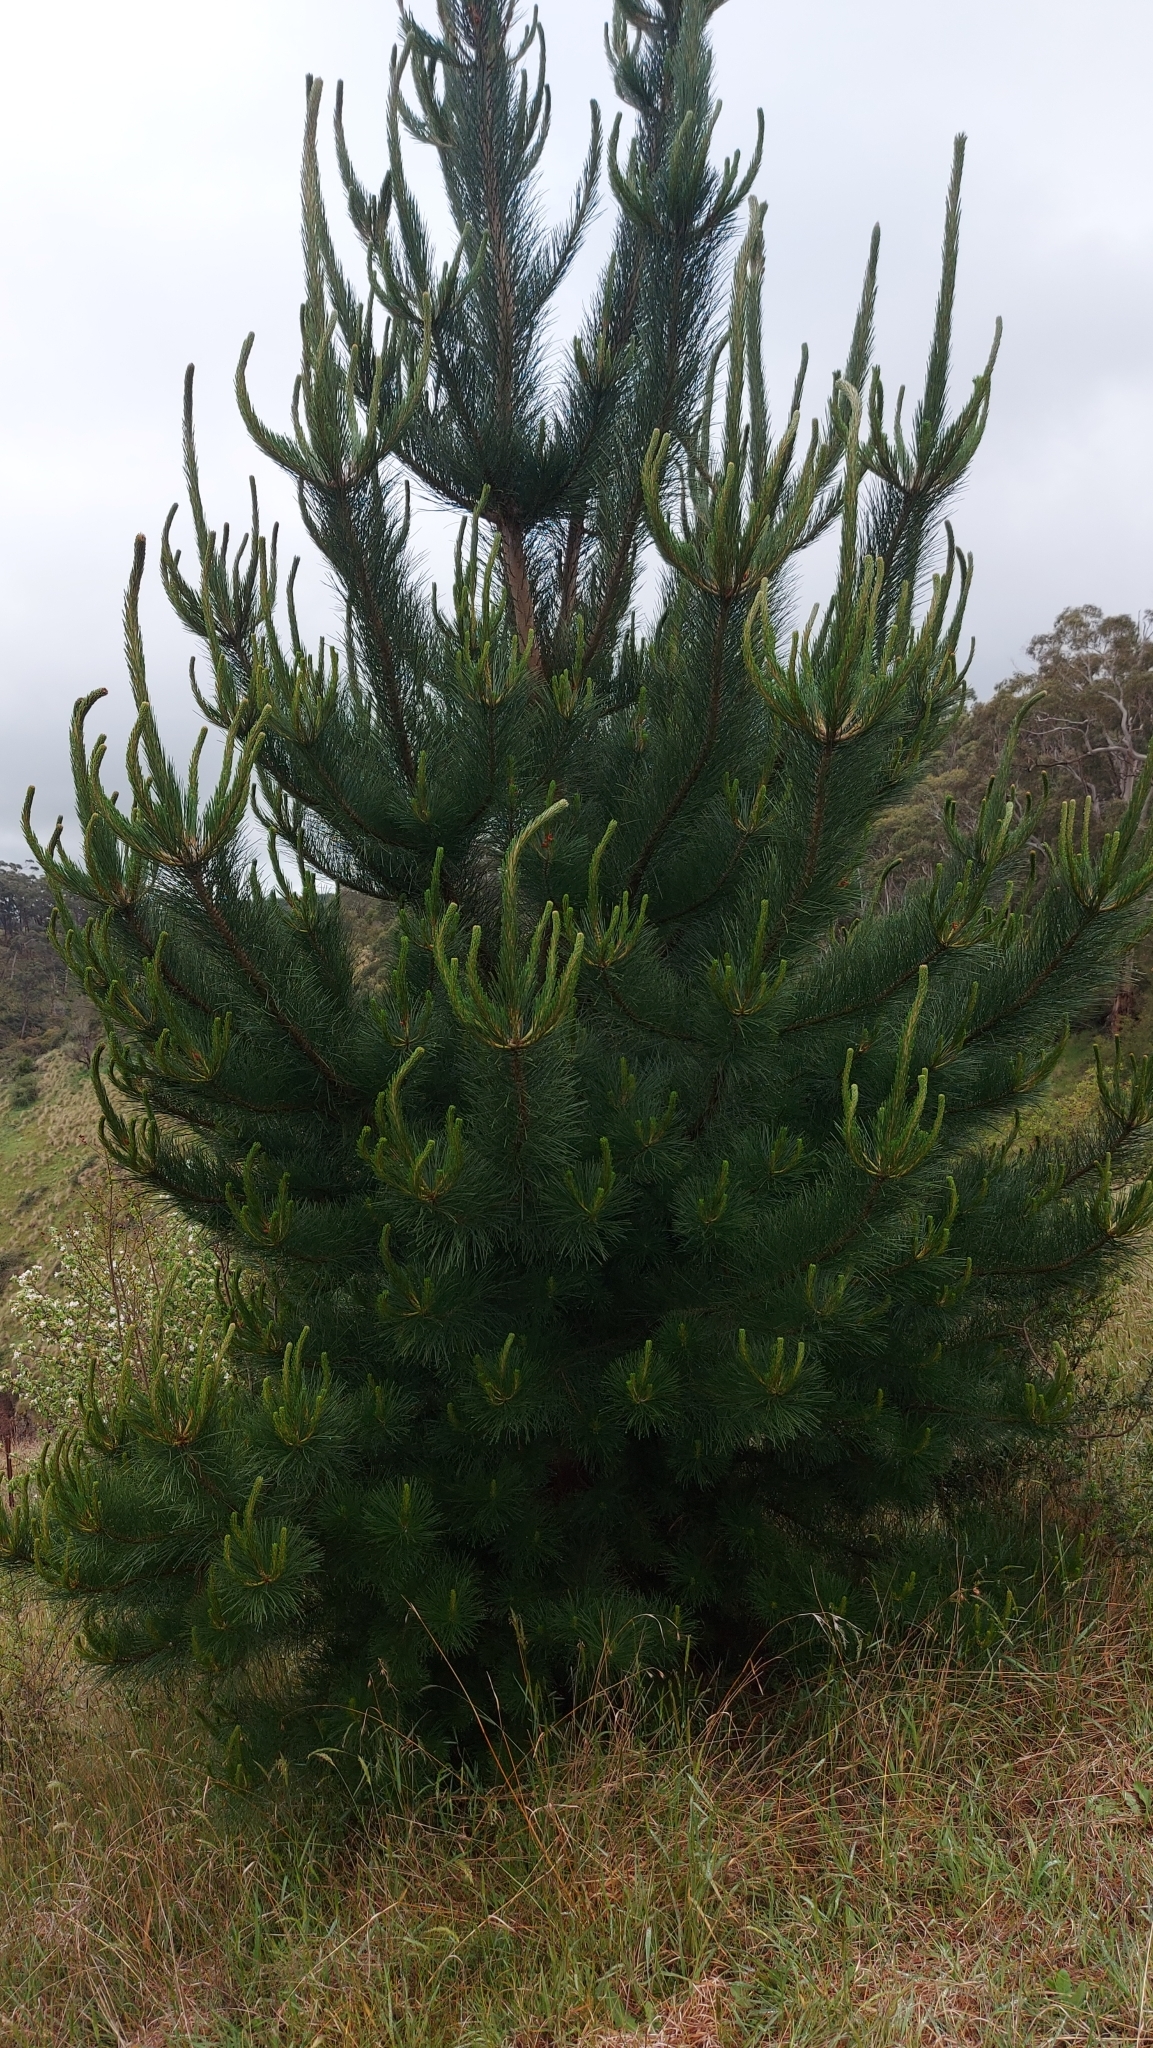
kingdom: Plantae
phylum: Tracheophyta
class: Pinopsida
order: Pinales
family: Pinaceae
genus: Pinus
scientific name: Pinus radiata
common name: Monterey pine
